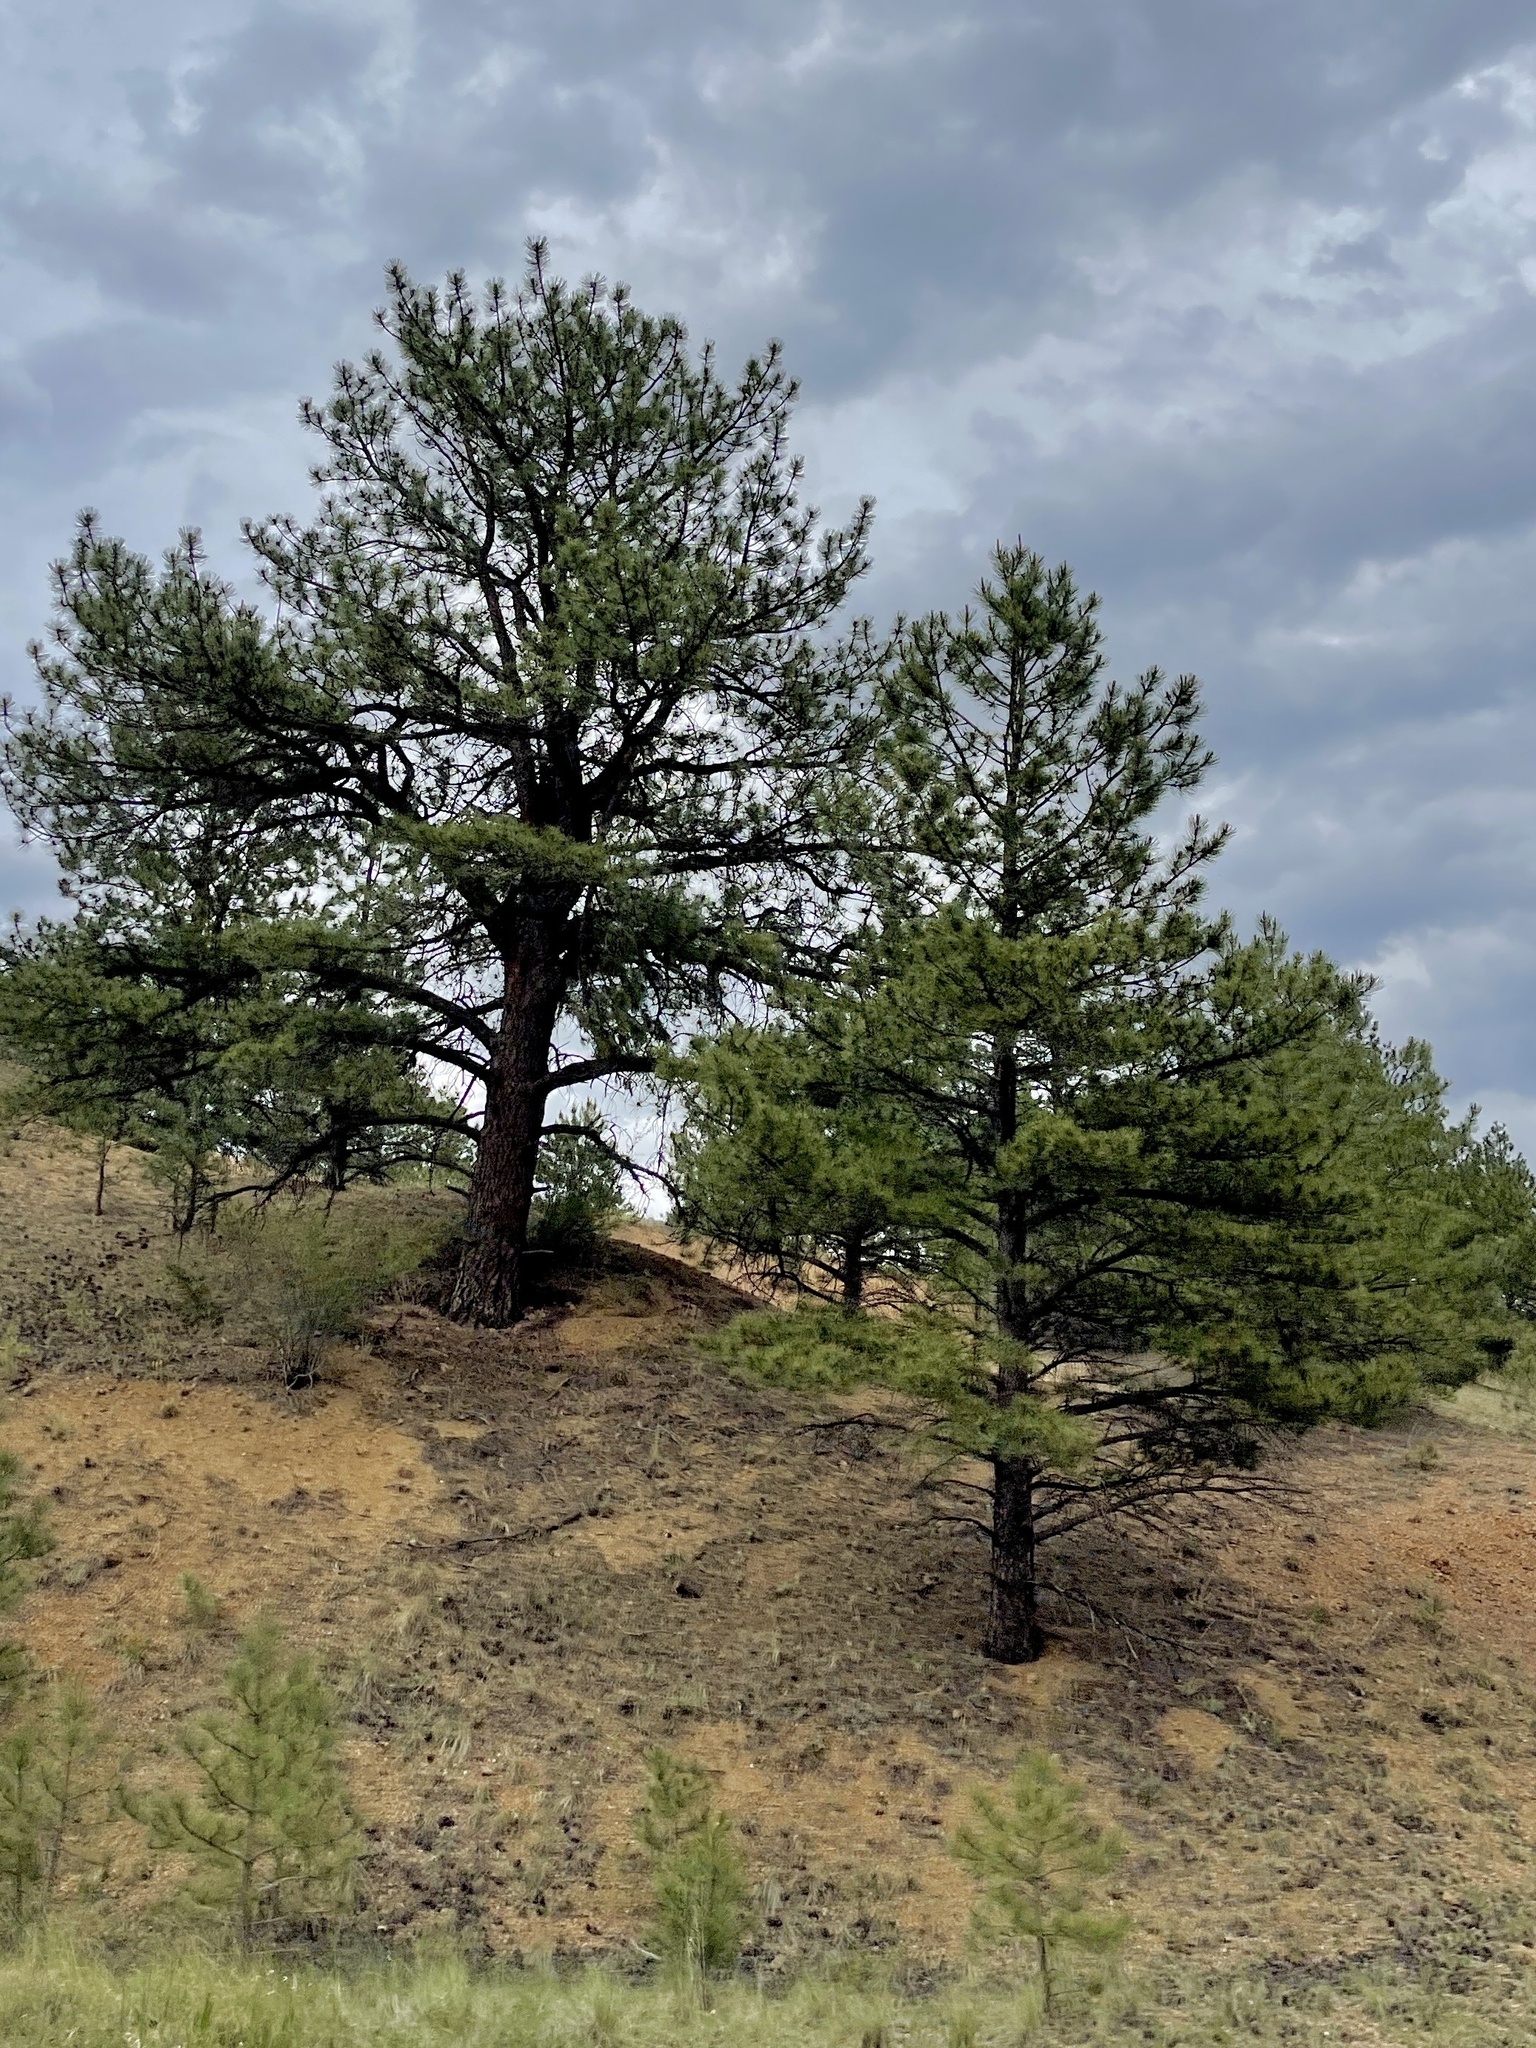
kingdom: Plantae
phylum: Tracheophyta
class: Pinopsida
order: Pinales
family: Pinaceae
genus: Pinus
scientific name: Pinus ponderosa
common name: Western yellow-pine
